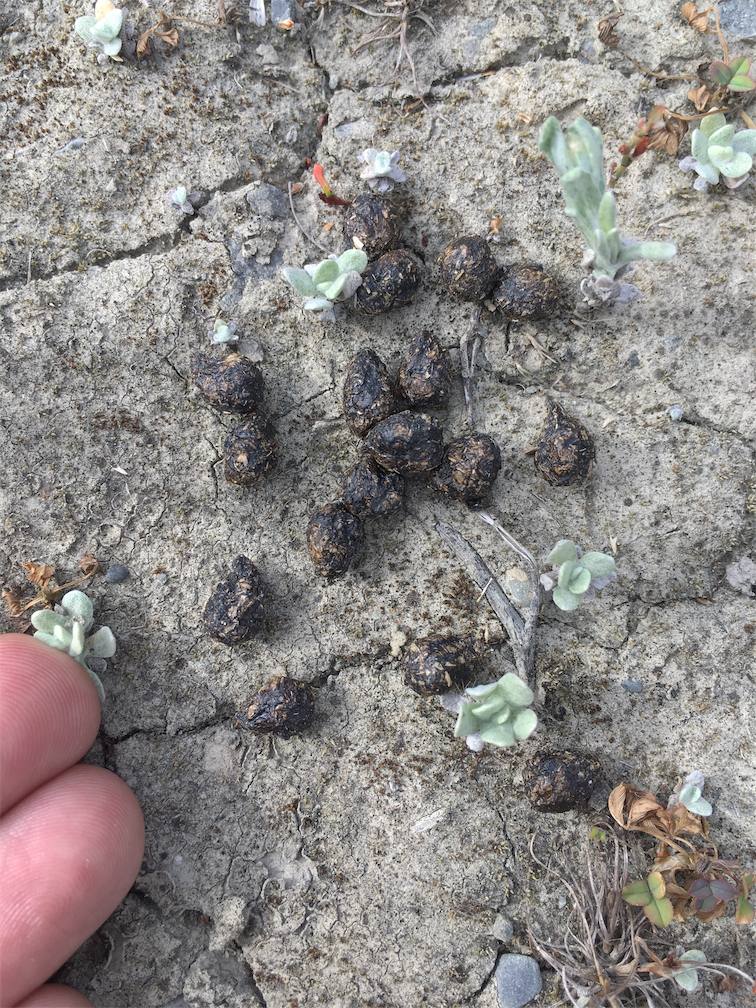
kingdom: Animalia
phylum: Chordata
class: Mammalia
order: Lagomorpha
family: Leporidae
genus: Oryctolagus
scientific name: Oryctolagus cuniculus
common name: European rabbit
